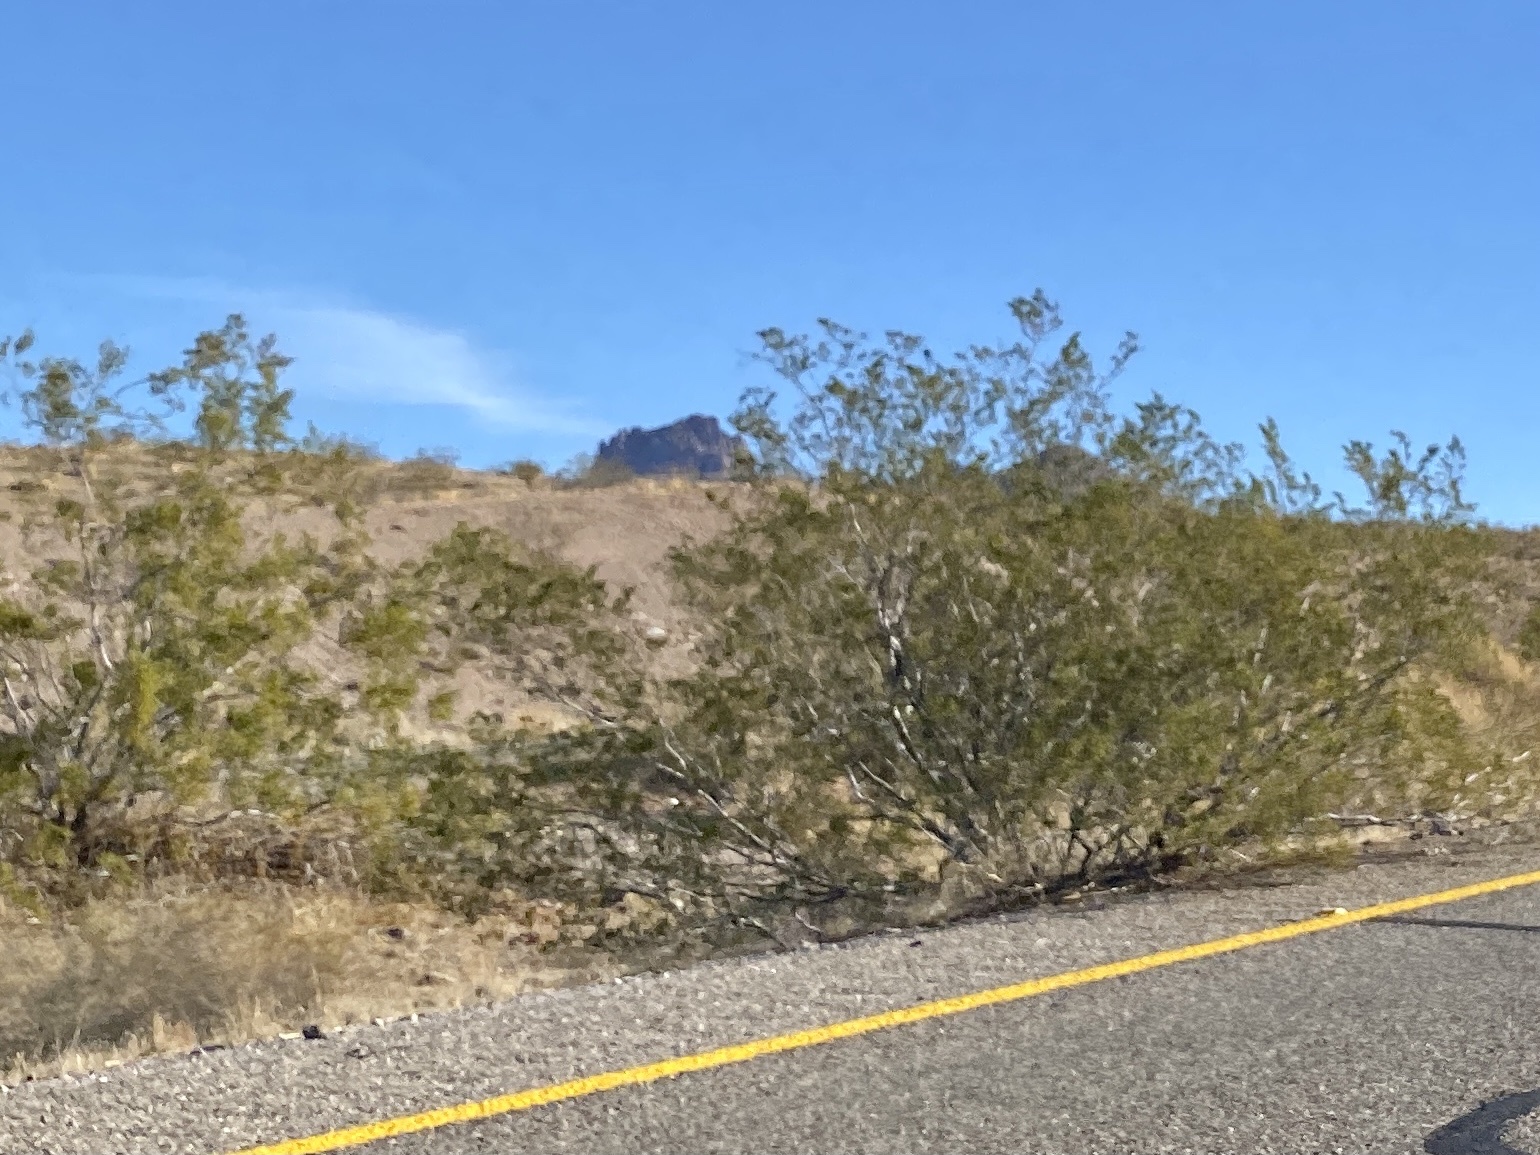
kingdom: Plantae
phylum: Tracheophyta
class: Magnoliopsida
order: Zygophyllales
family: Zygophyllaceae
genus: Larrea
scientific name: Larrea tridentata
